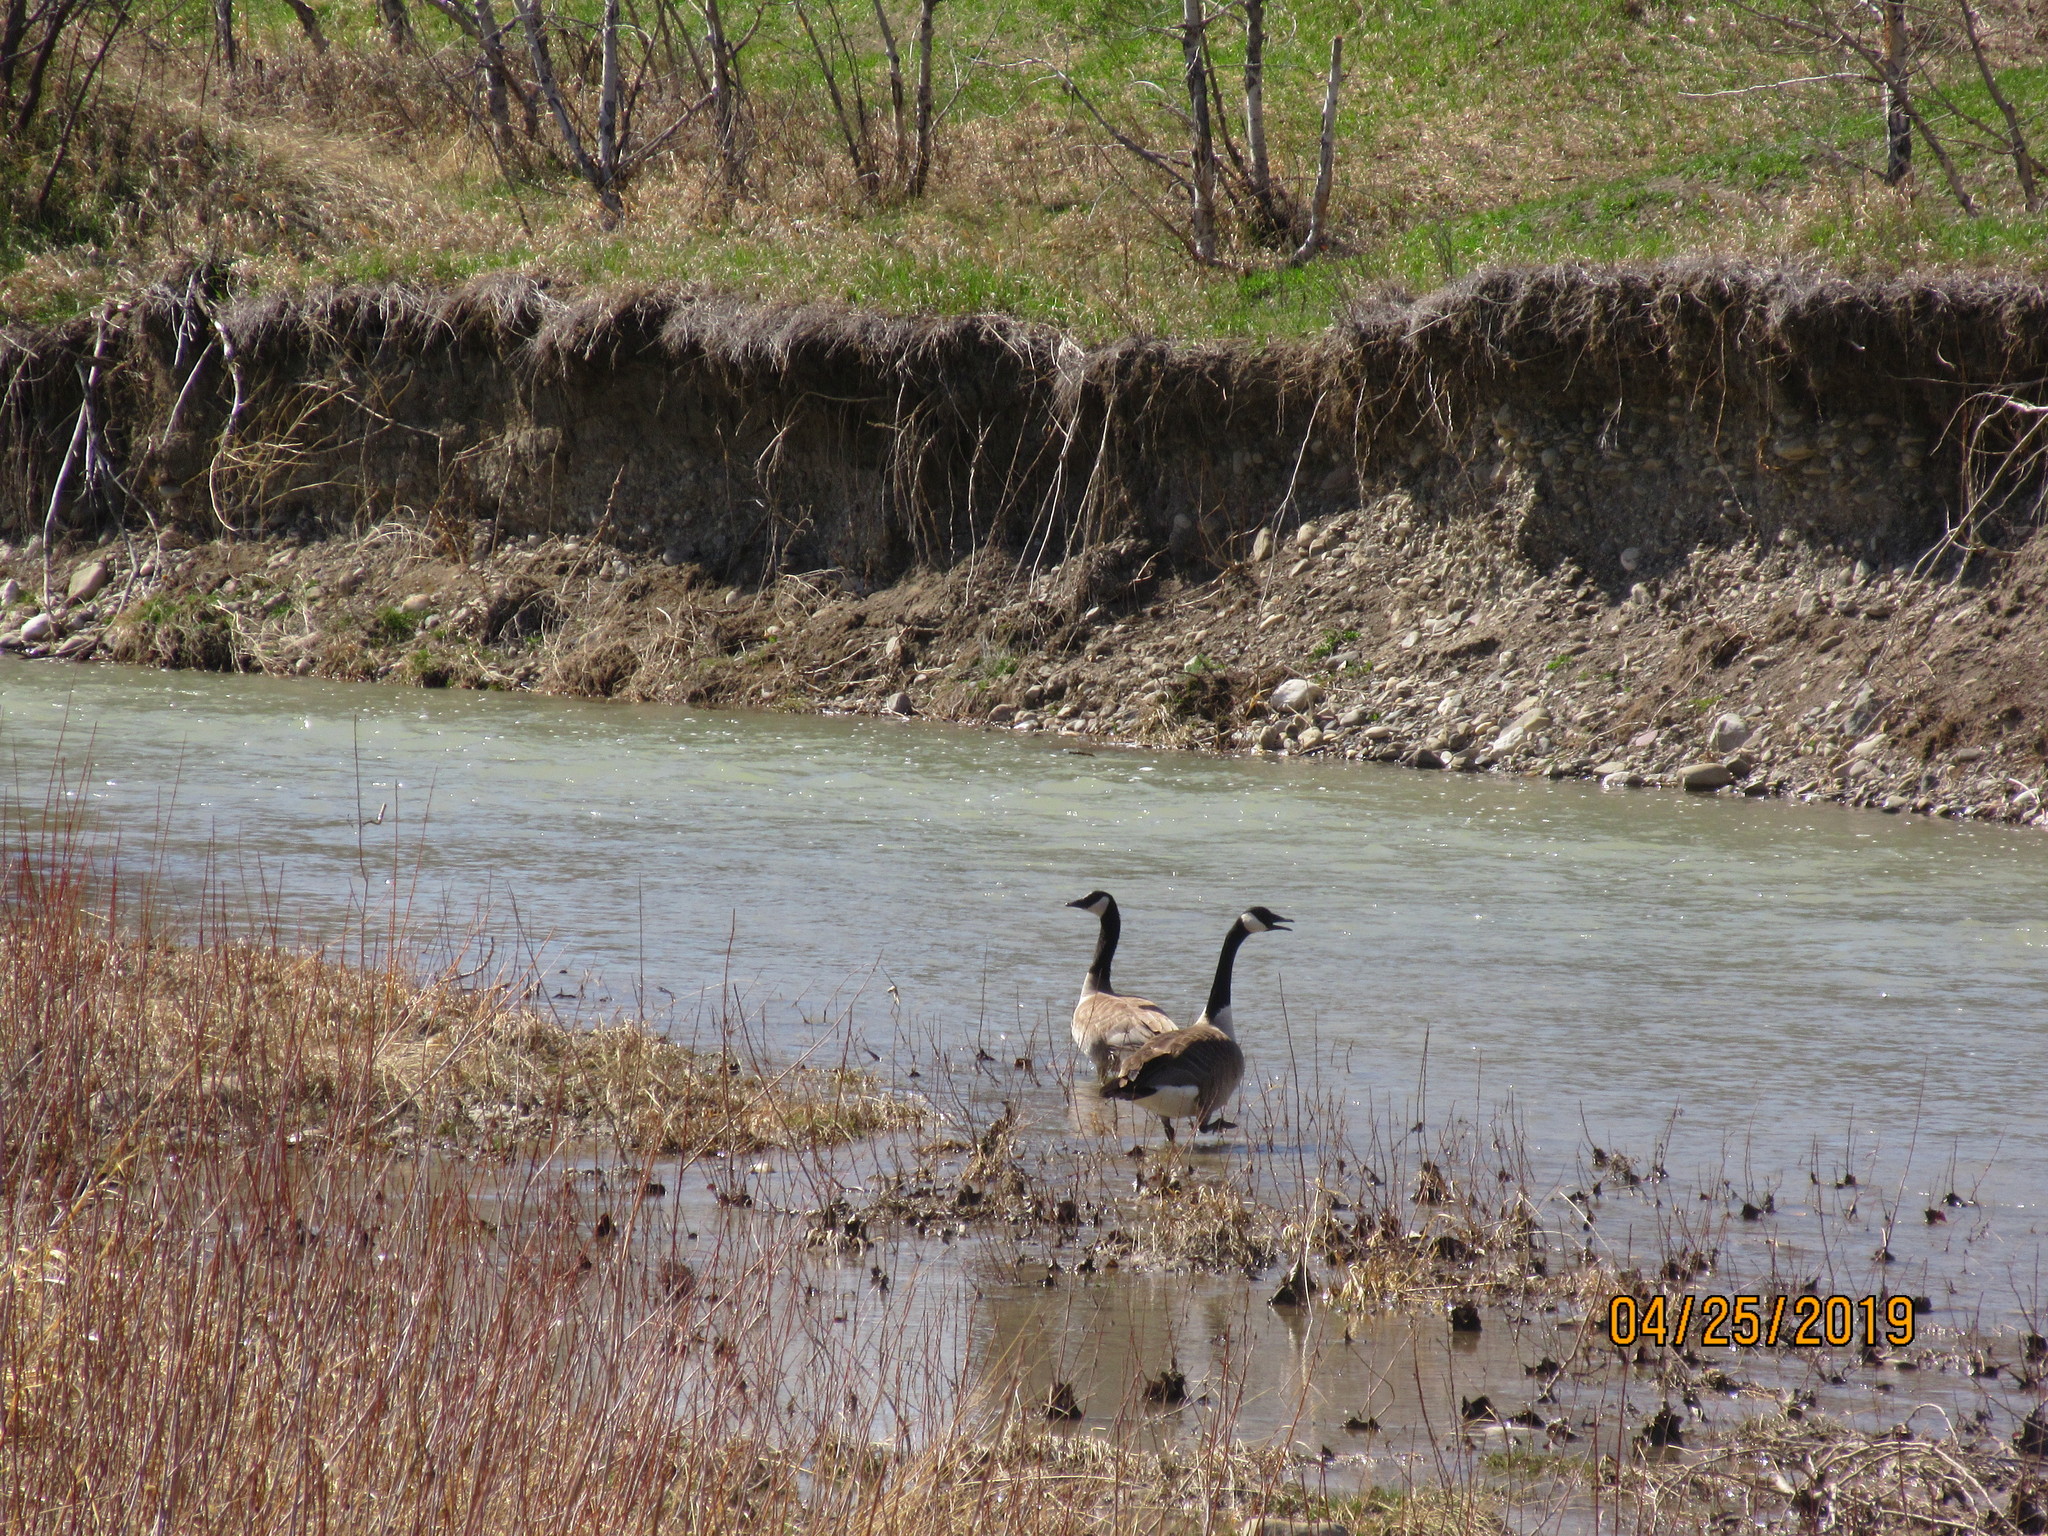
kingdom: Animalia
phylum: Chordata
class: Aves
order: Anseriformes
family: Anatidae
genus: Branta
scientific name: Branta canadensis
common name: Canada goose
